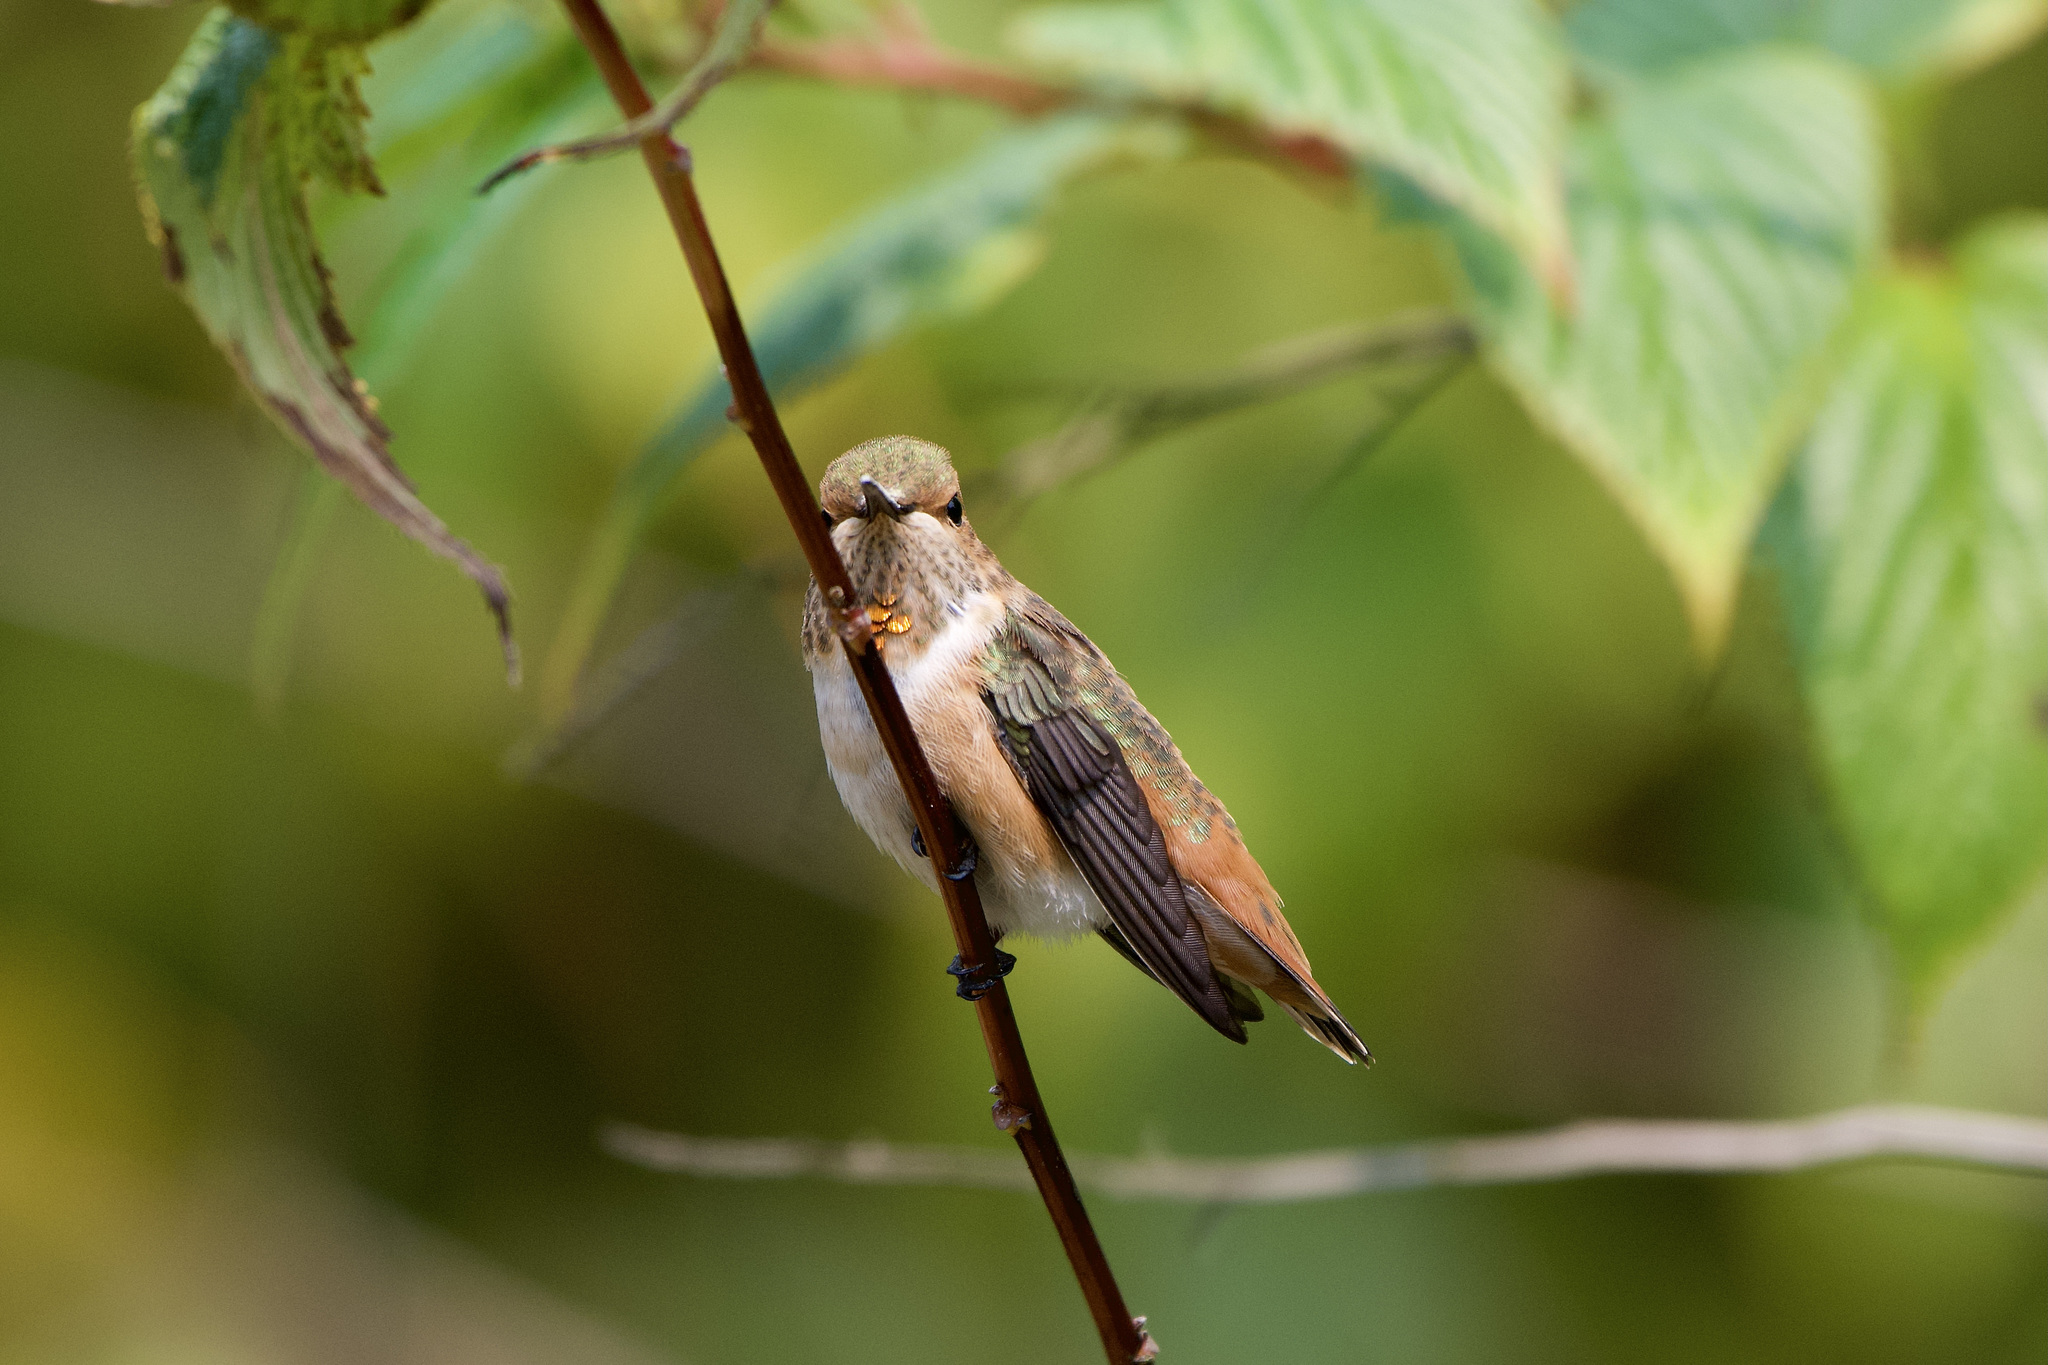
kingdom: Animalia
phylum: Chordata
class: Aves
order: Apodiformes
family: Trochilidae
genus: Selasphorus
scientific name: Selasphorus
